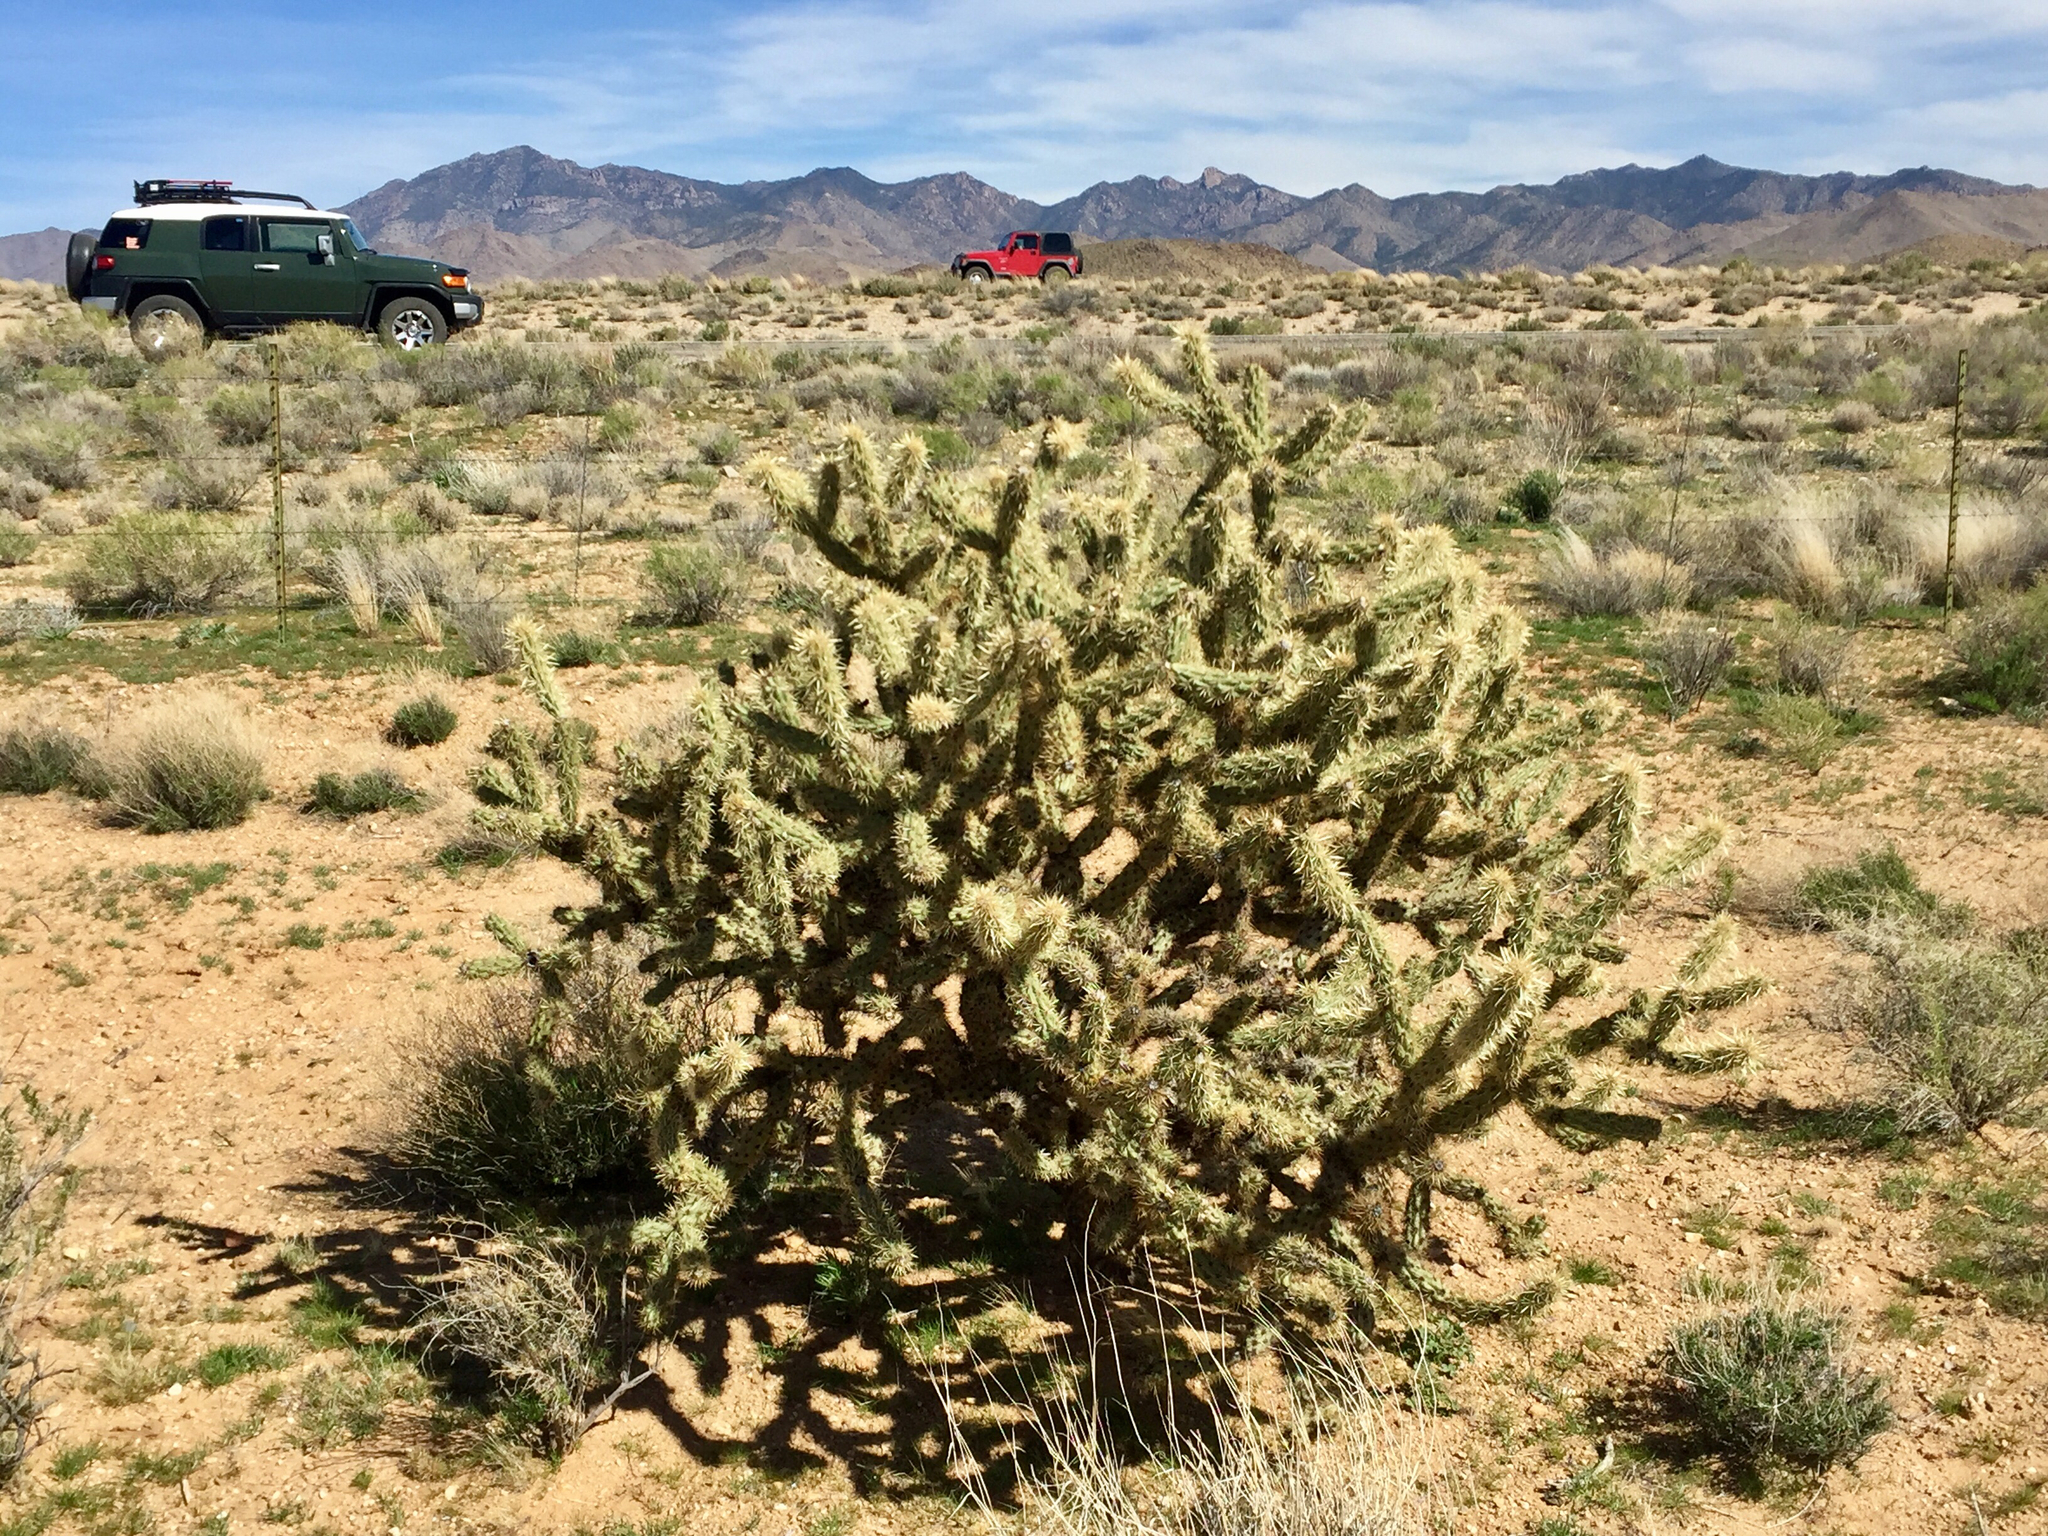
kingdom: Plantae
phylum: Tracheophyta
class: Magnoliopsida
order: Caryophyllales
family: Cactaceae
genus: Cylindropuntia
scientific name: Cylindropuntia acanthocarpa
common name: Buckhorn cholla
